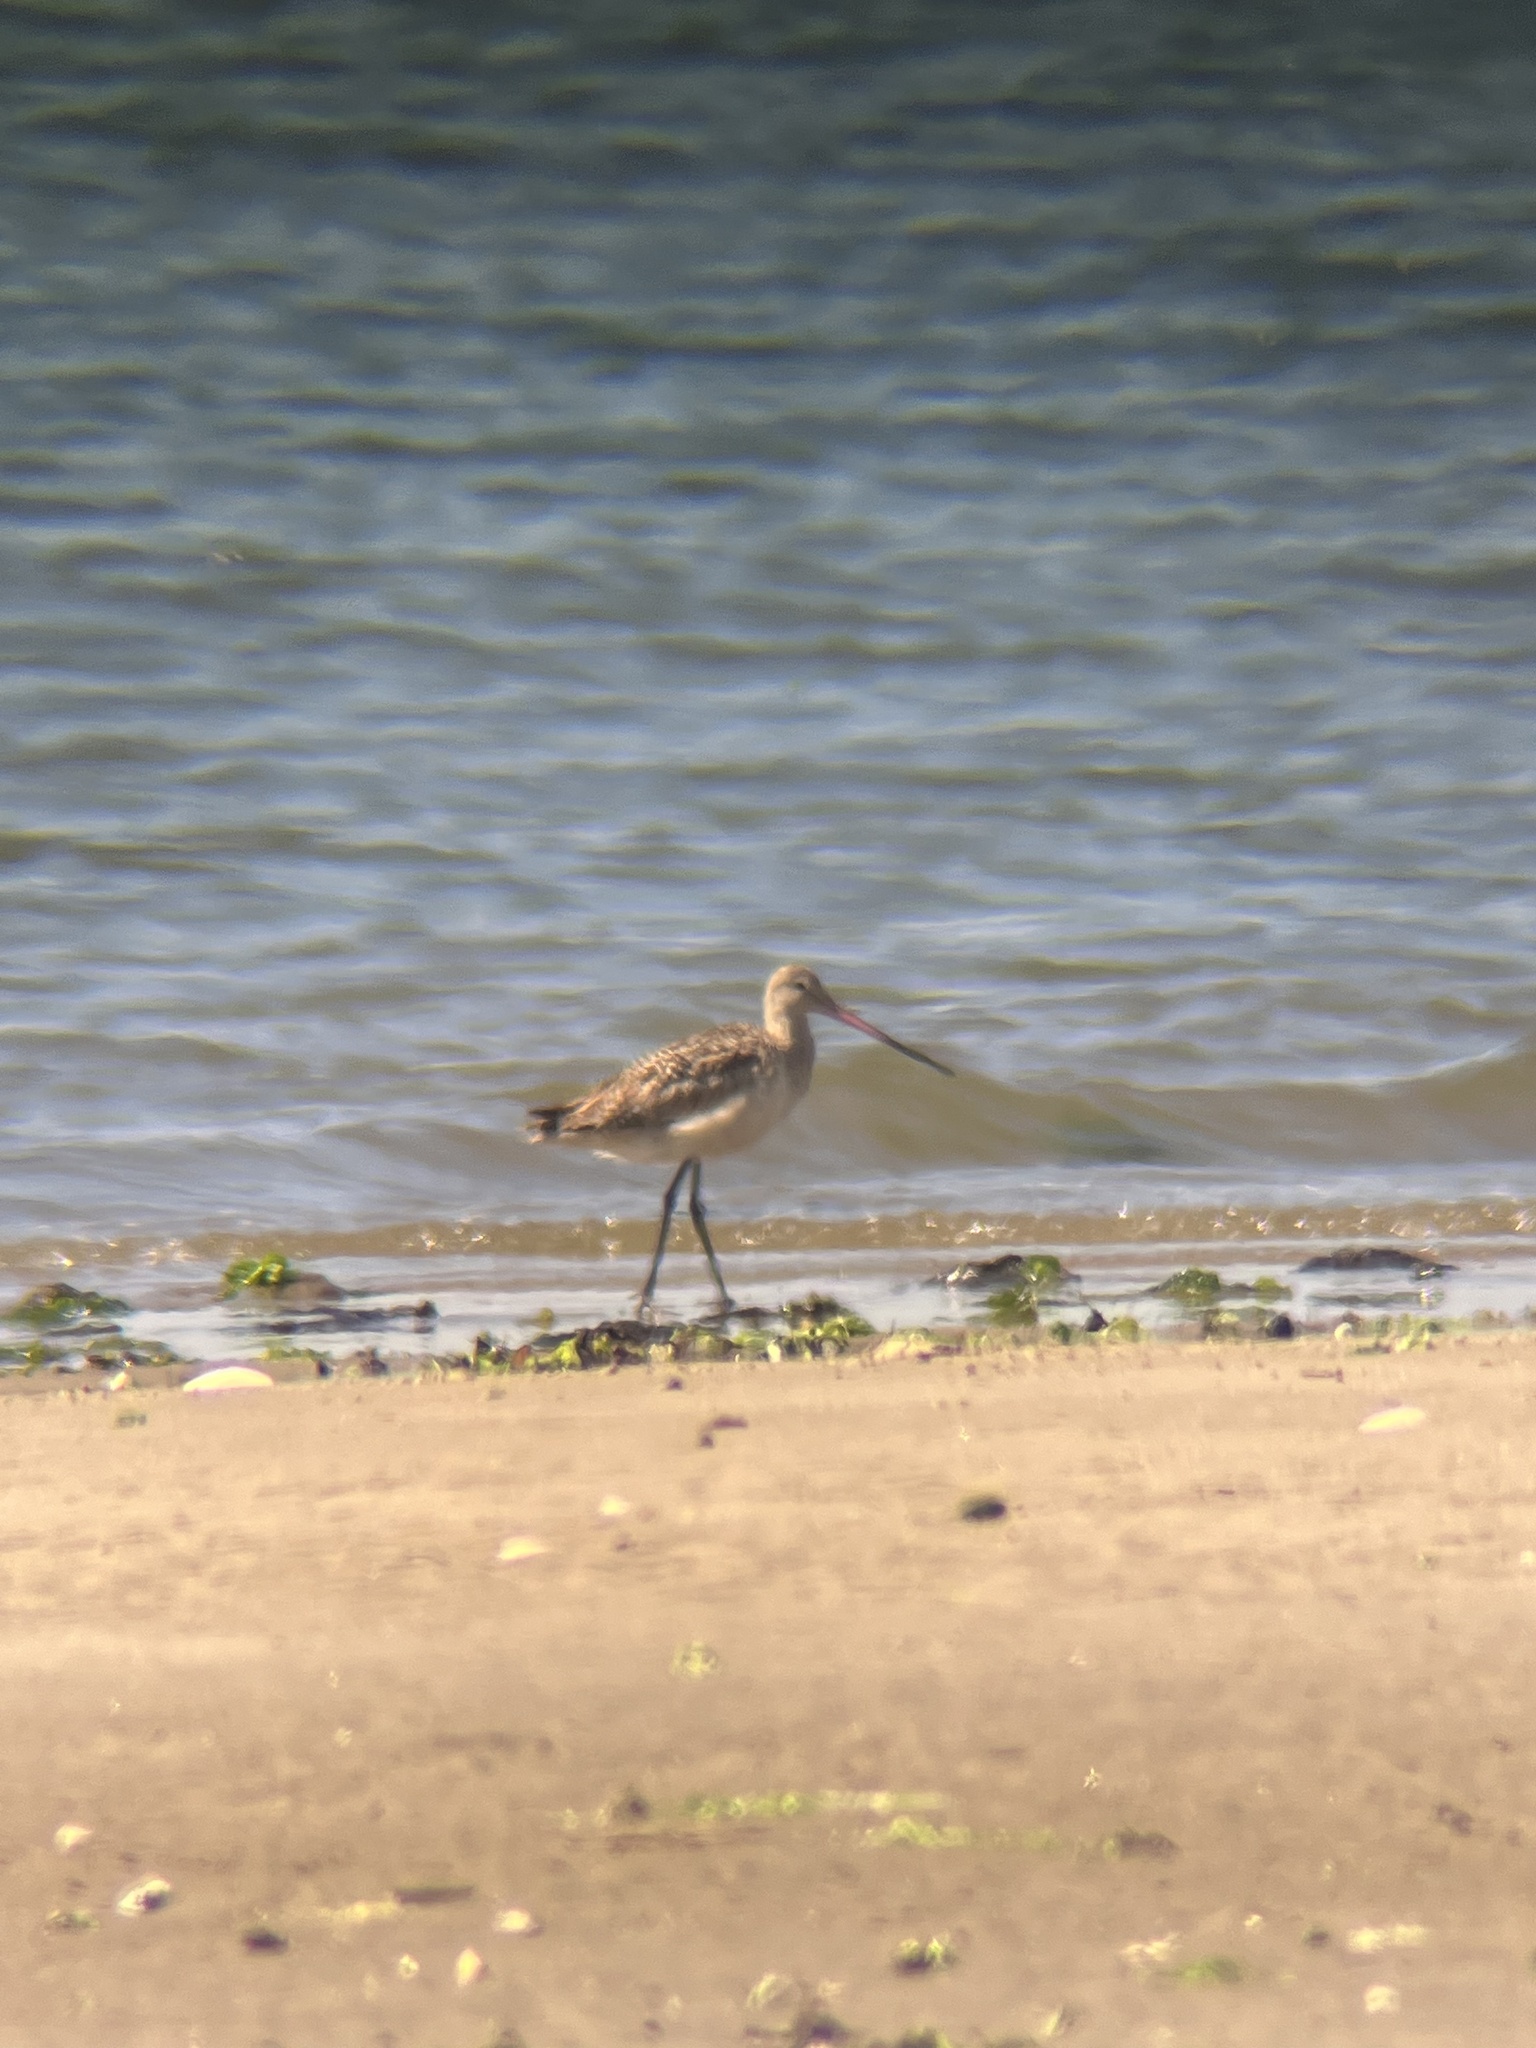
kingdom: Animalia
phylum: Chordata
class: Aves
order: Charadriiformes
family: Scolopacidae
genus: Limosa
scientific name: Limosa fedoa
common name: Marbled godwit
